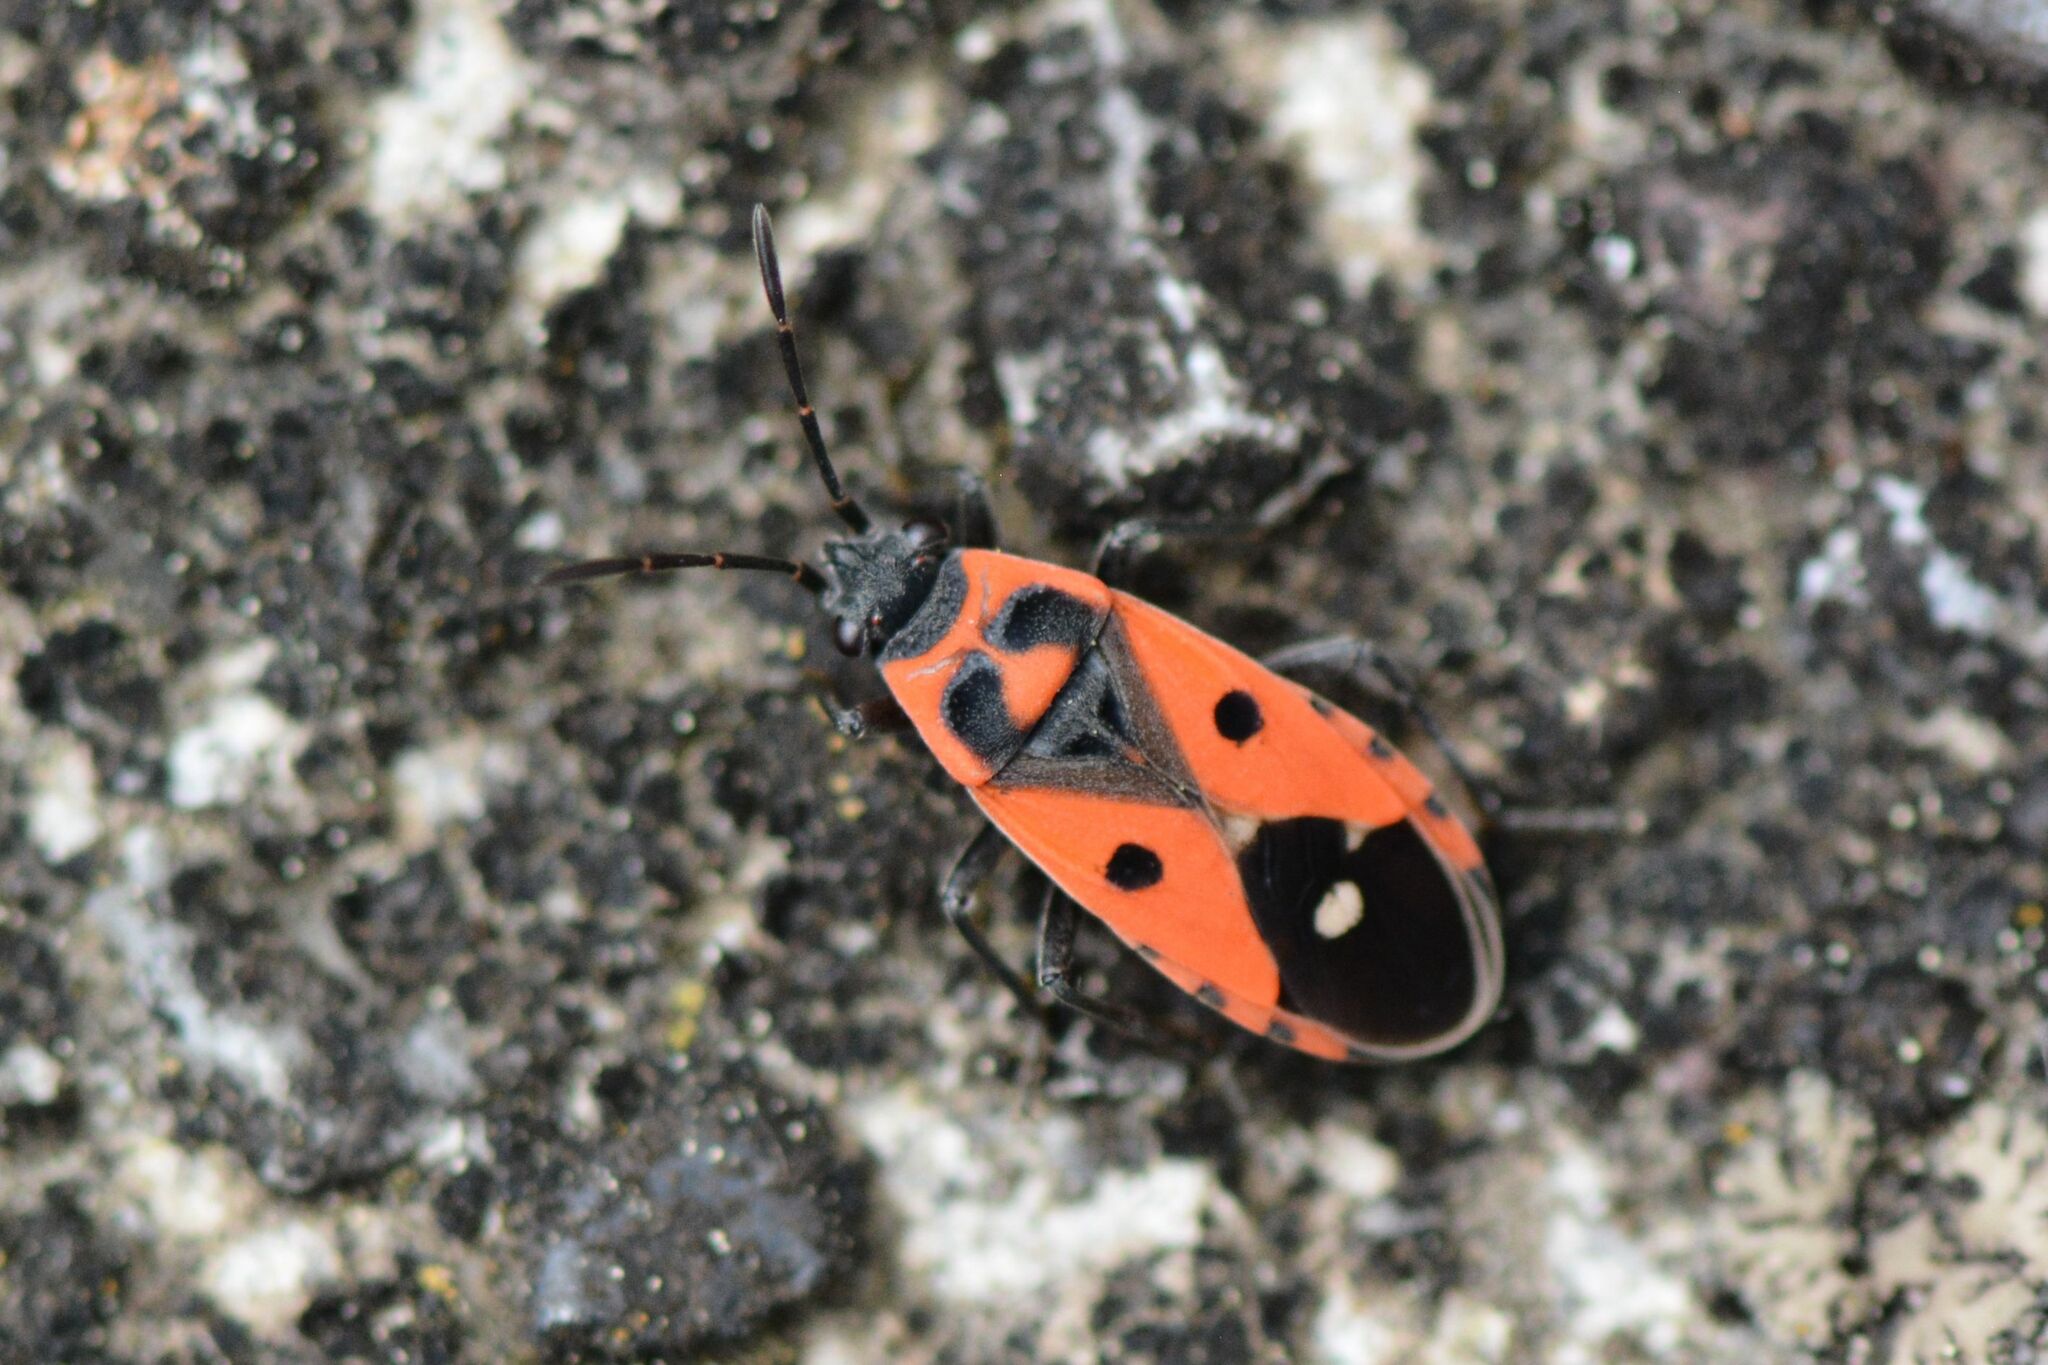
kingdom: Animalia
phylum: Arthropoda
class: Insecta
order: Hemiptera
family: Lygaeidae
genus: Melanocoryphus
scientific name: Melanocoryphus albomaculatus
